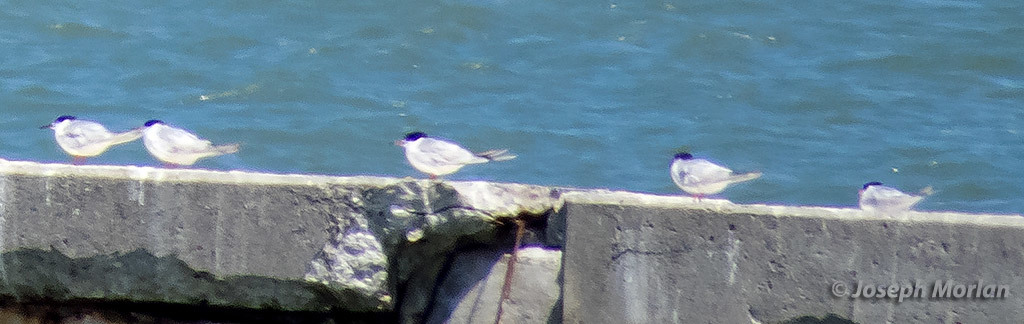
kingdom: Animalia
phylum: Chordata
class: Aves
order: Charadriiformes
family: Laridae
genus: Sterna
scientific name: Sterna forsteri
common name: Forster's tern
